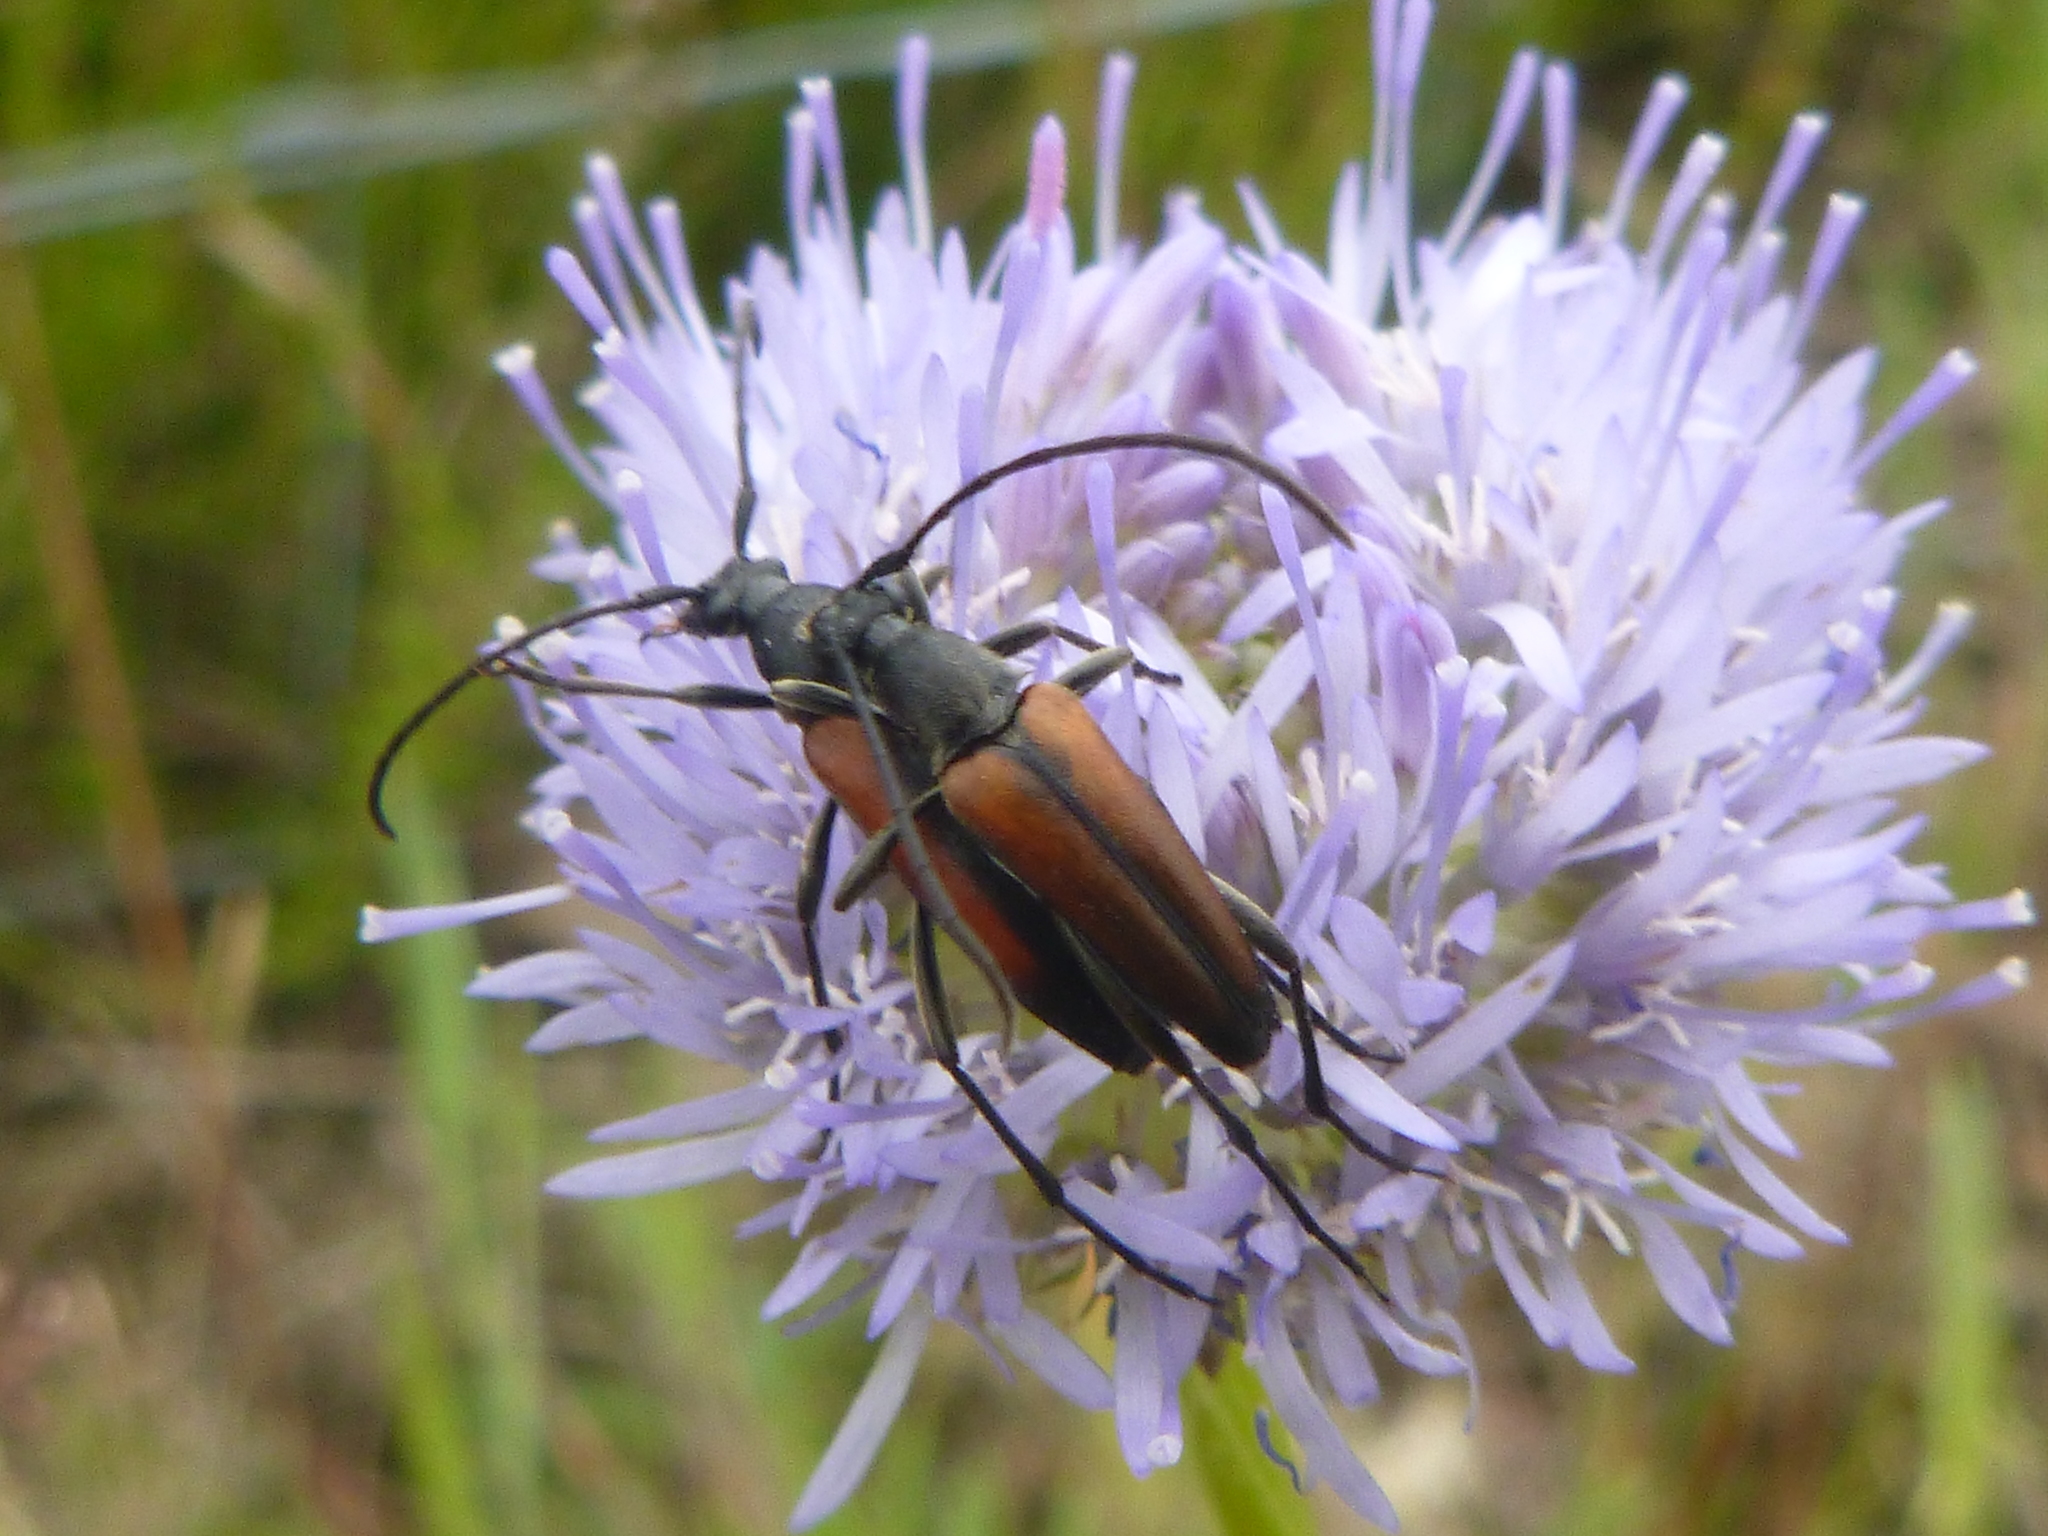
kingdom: Animalia
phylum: Arthropoda
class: Insecta
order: Coleoptera
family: Cerambycidae
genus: Stenurella
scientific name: Stenurella melanura
